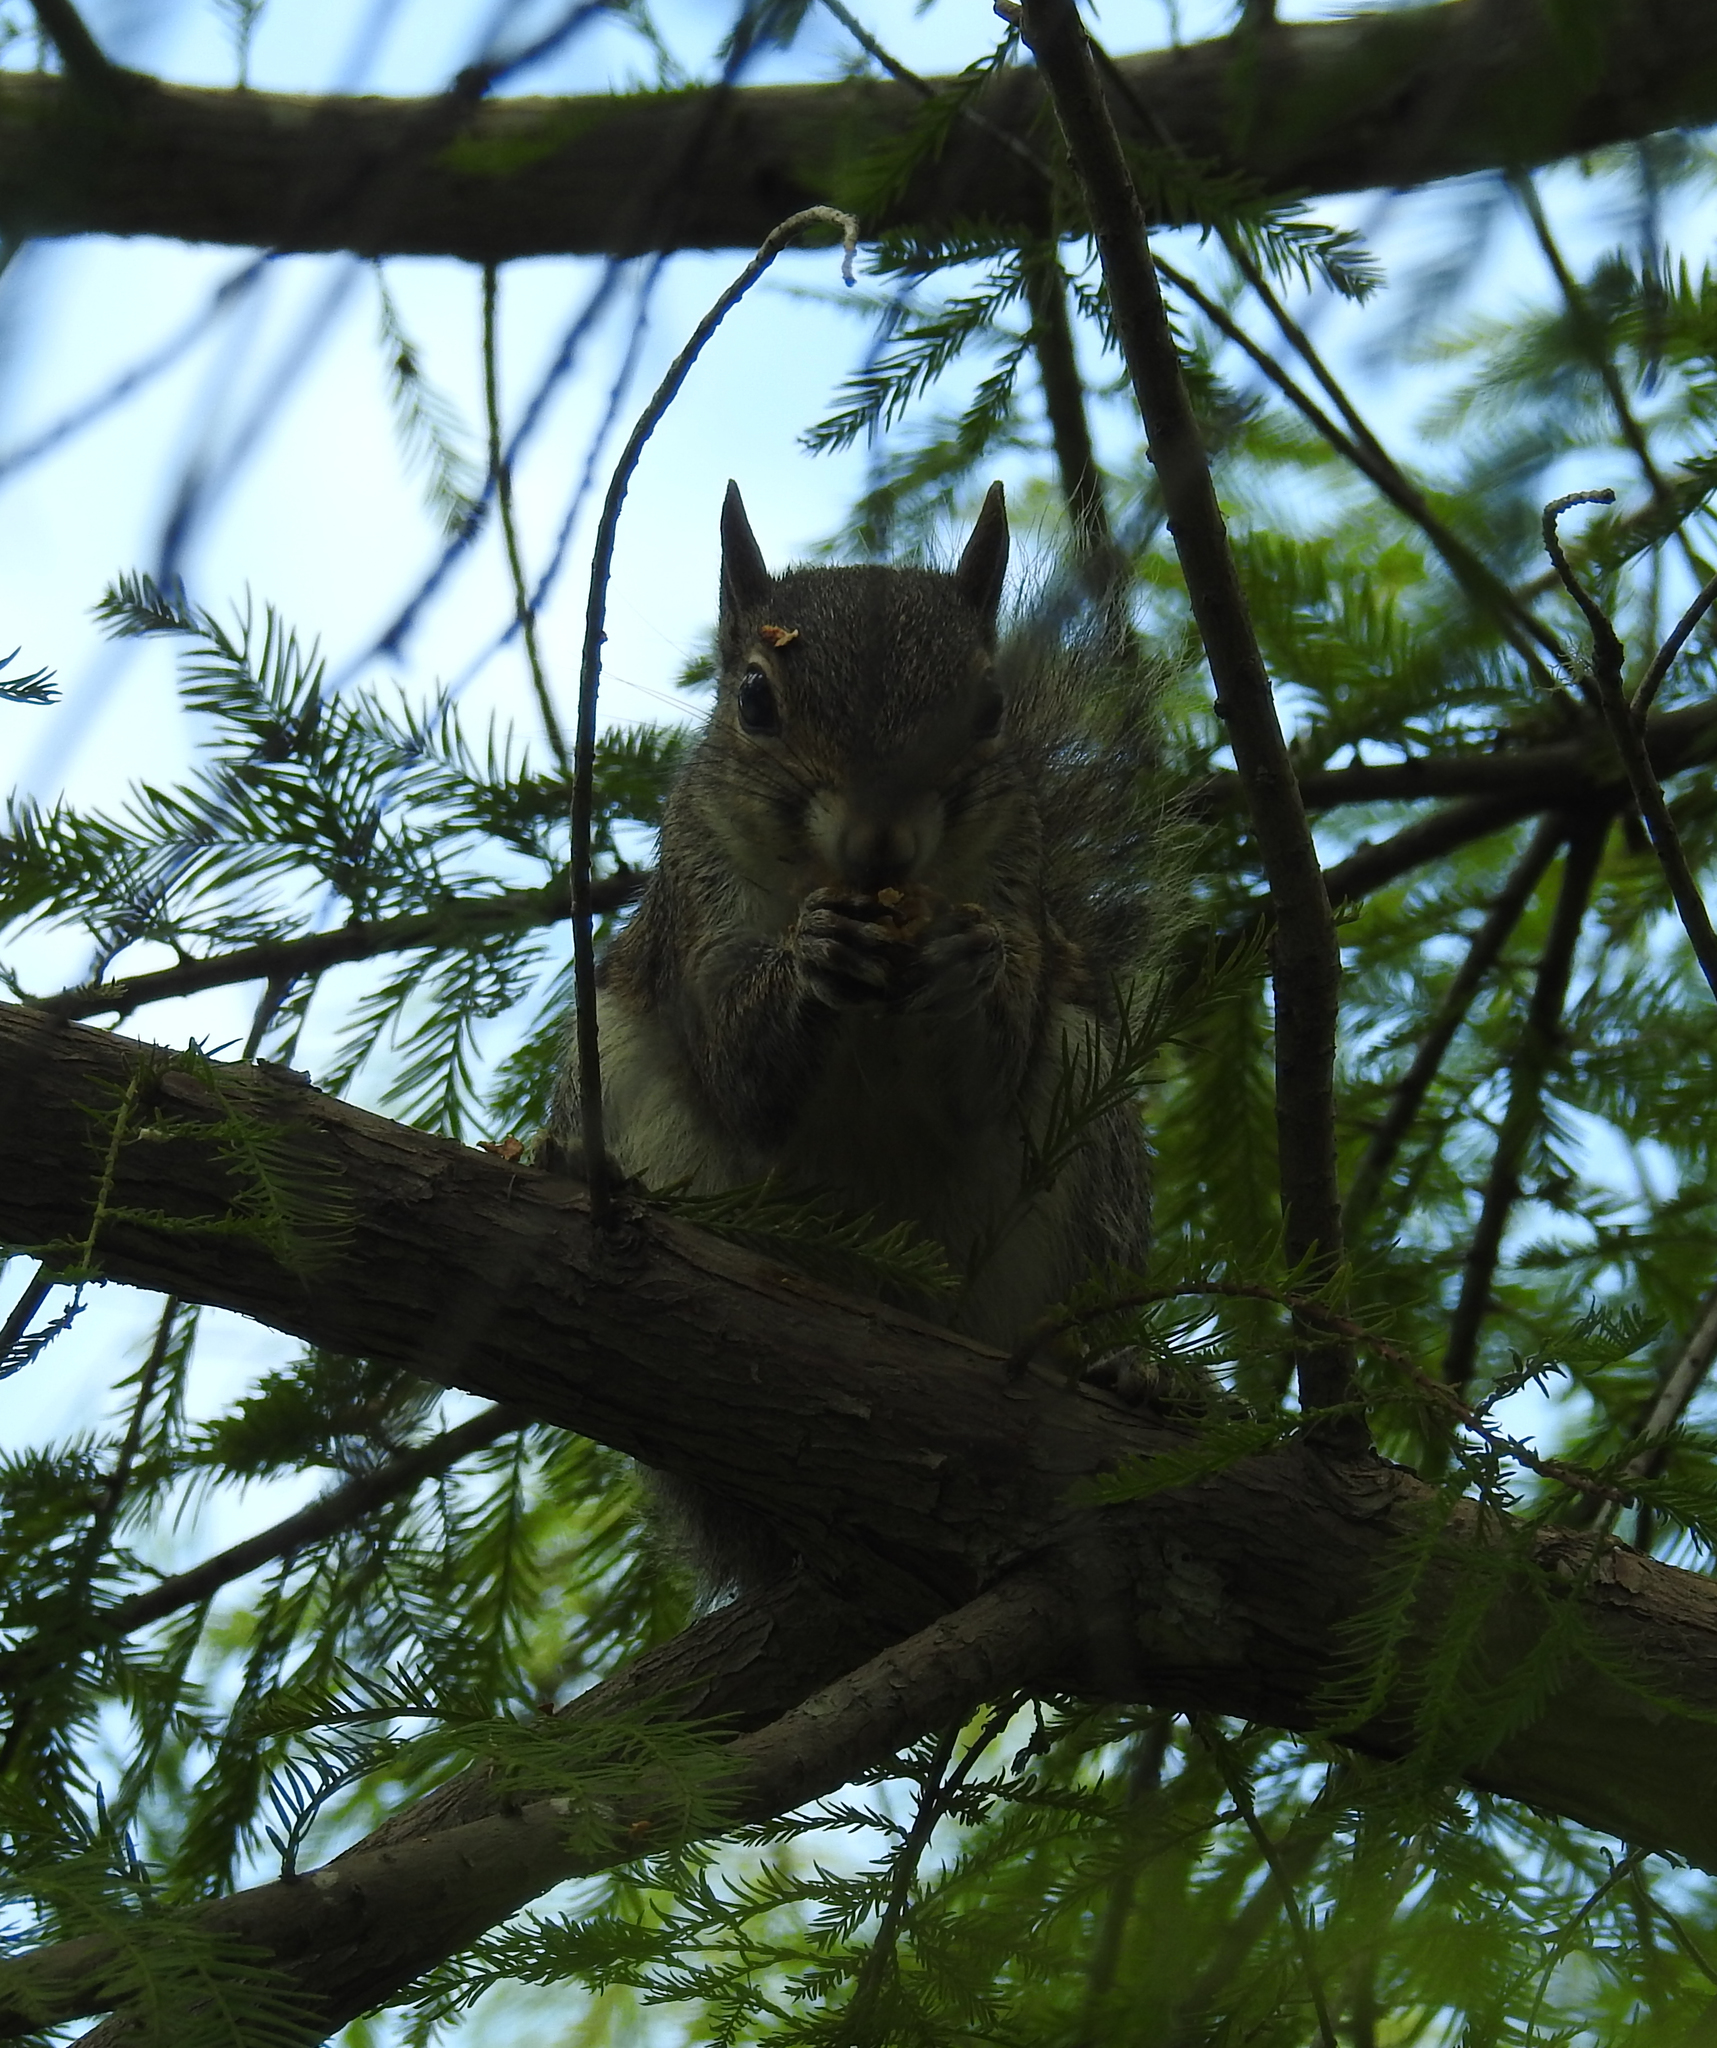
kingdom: Animalia
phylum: Chordata
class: Mammalia
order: Rodentia
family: Sciuridae
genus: Sciurus
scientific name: Sciurus carolinensis
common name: Eastern gray squirrel
